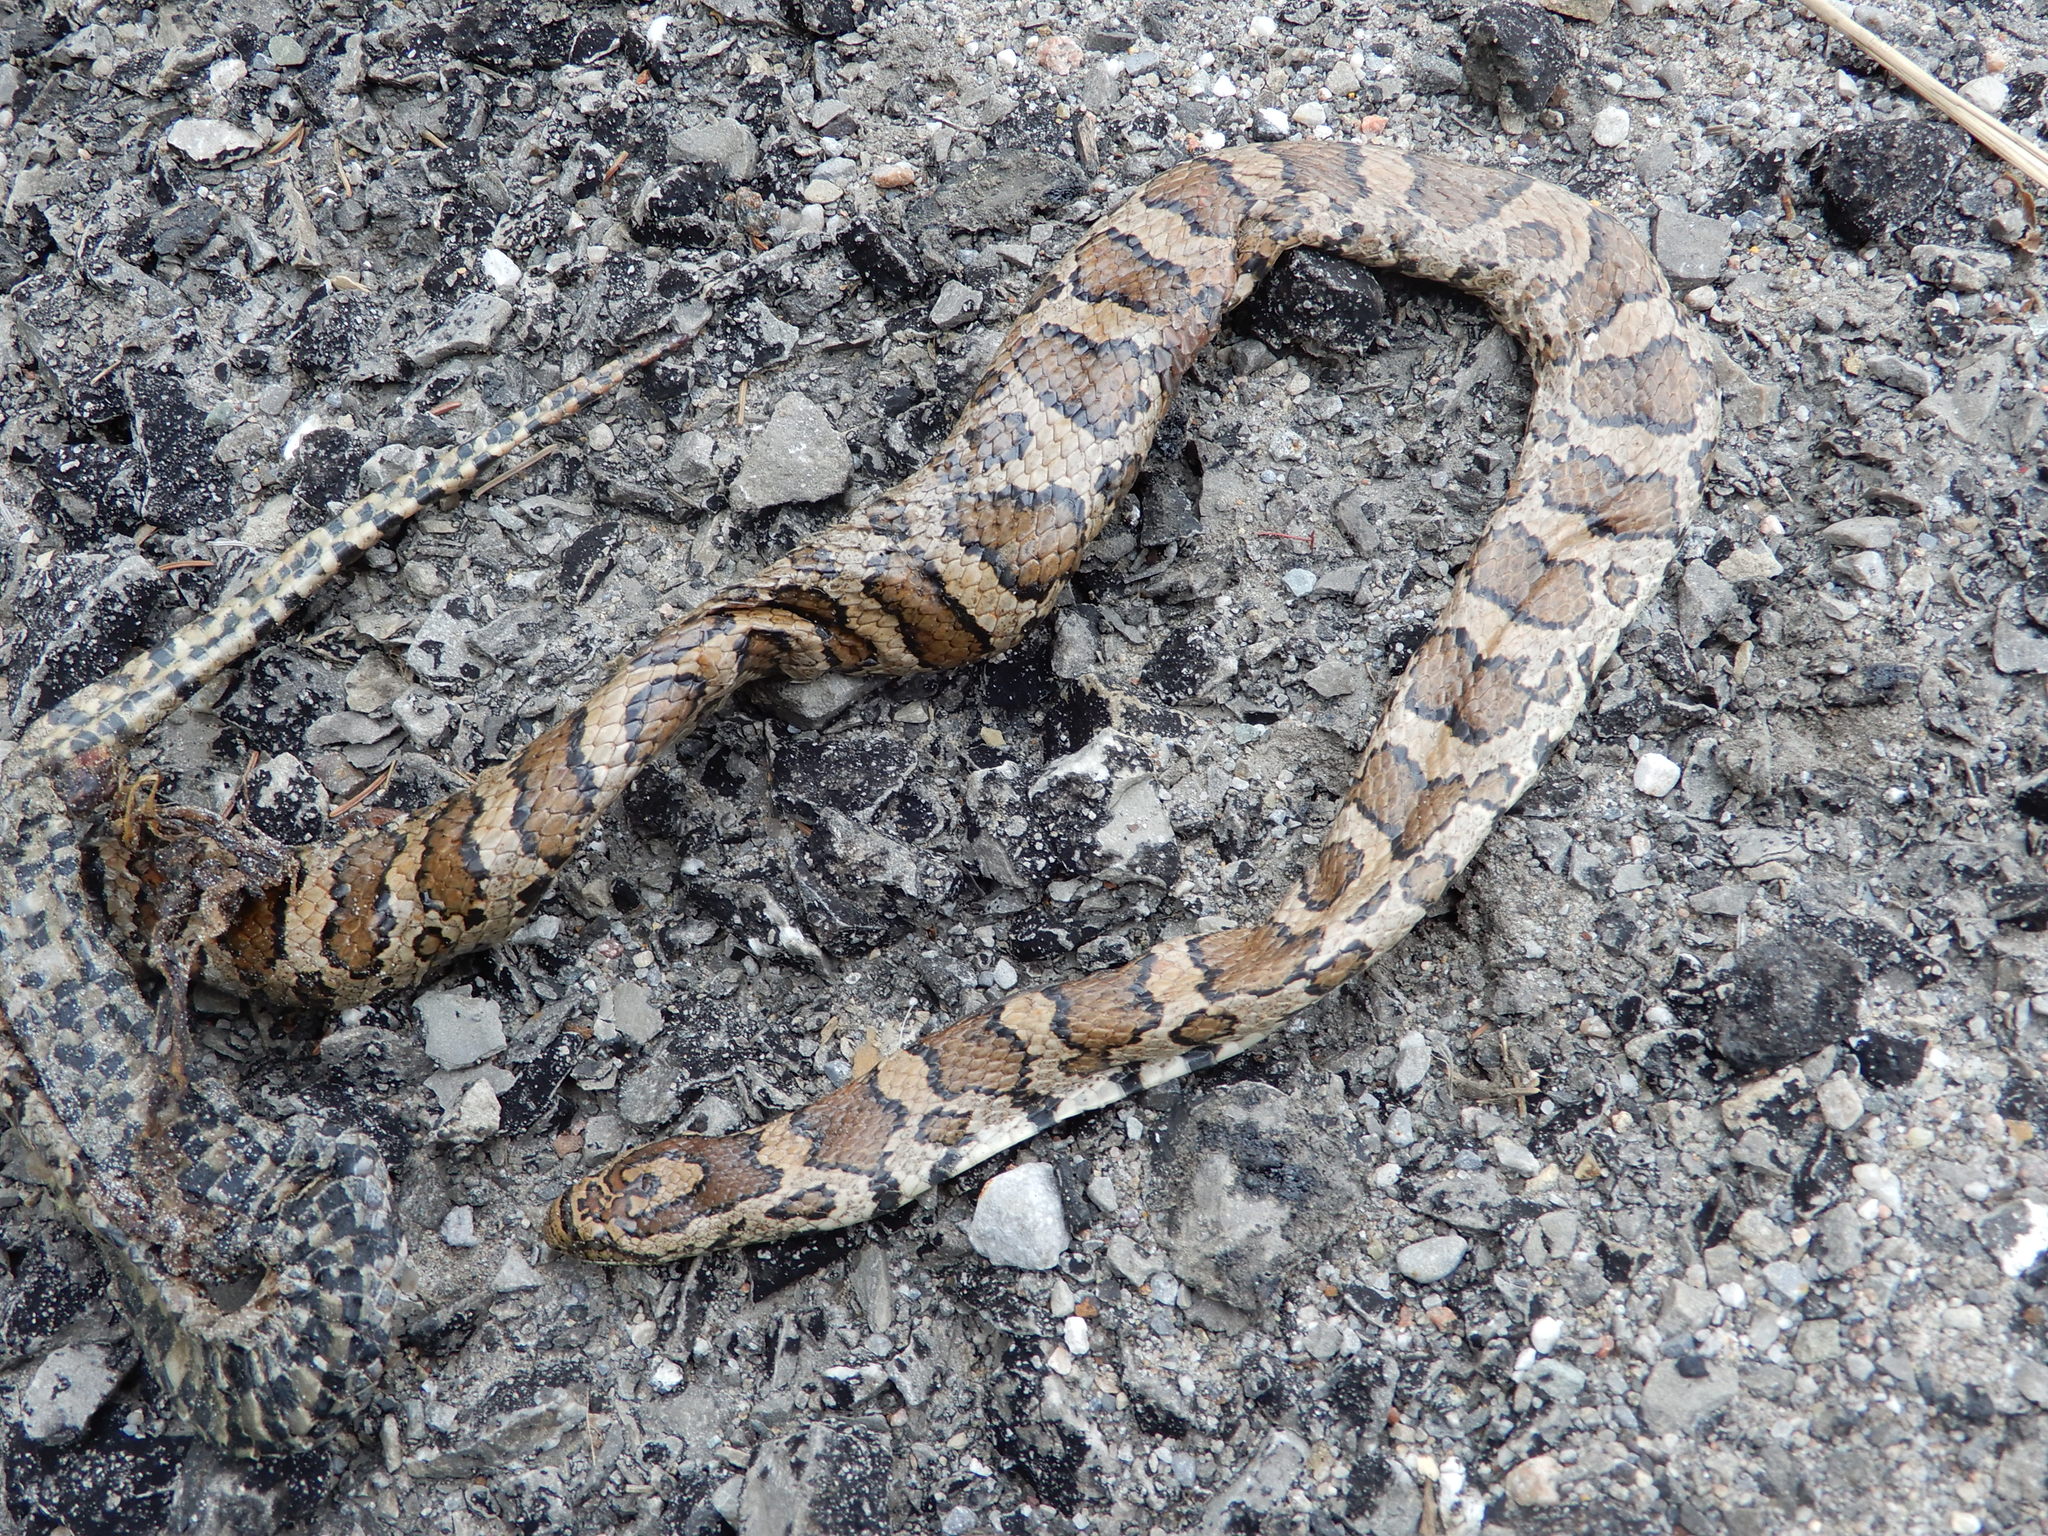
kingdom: Animalia
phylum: Chordata
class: Squamata
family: Colubridae
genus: Lampropeltis
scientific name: Lampropeltis triangulum
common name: Eastern milksnake
